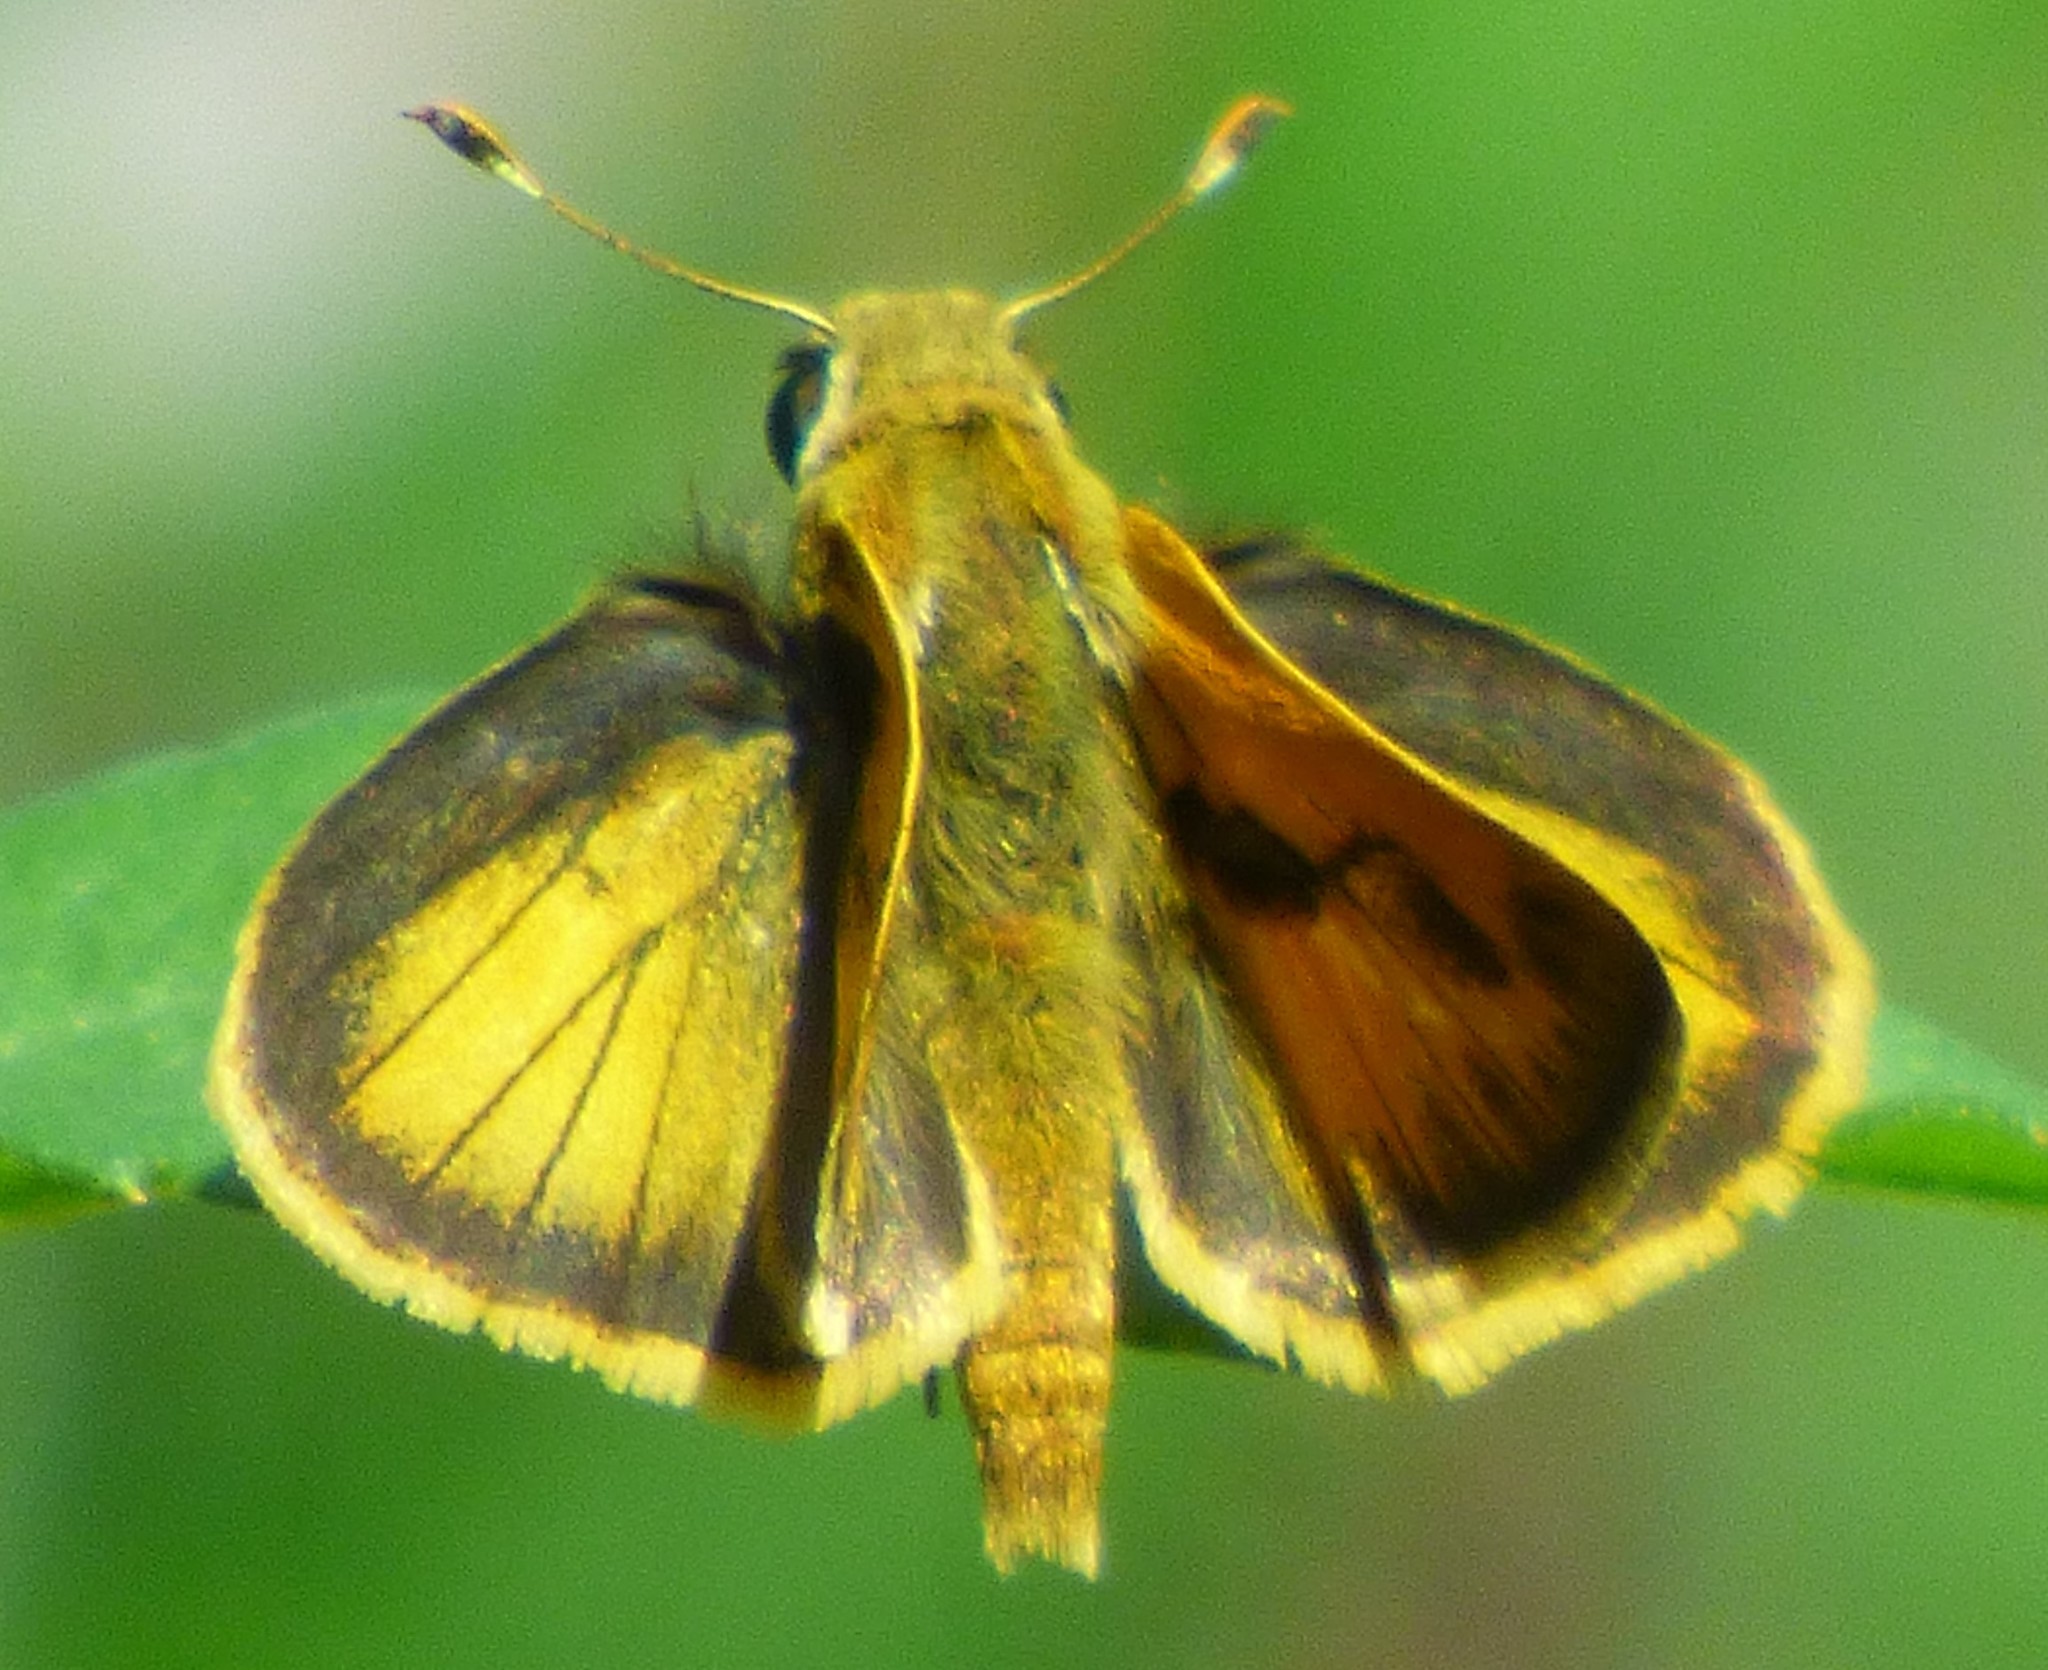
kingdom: Animalia
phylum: Arthropoda
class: Insecta
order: Lepidoptera
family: Hesperiidae
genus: Polites
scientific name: Polites vibex
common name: Whirlabout
